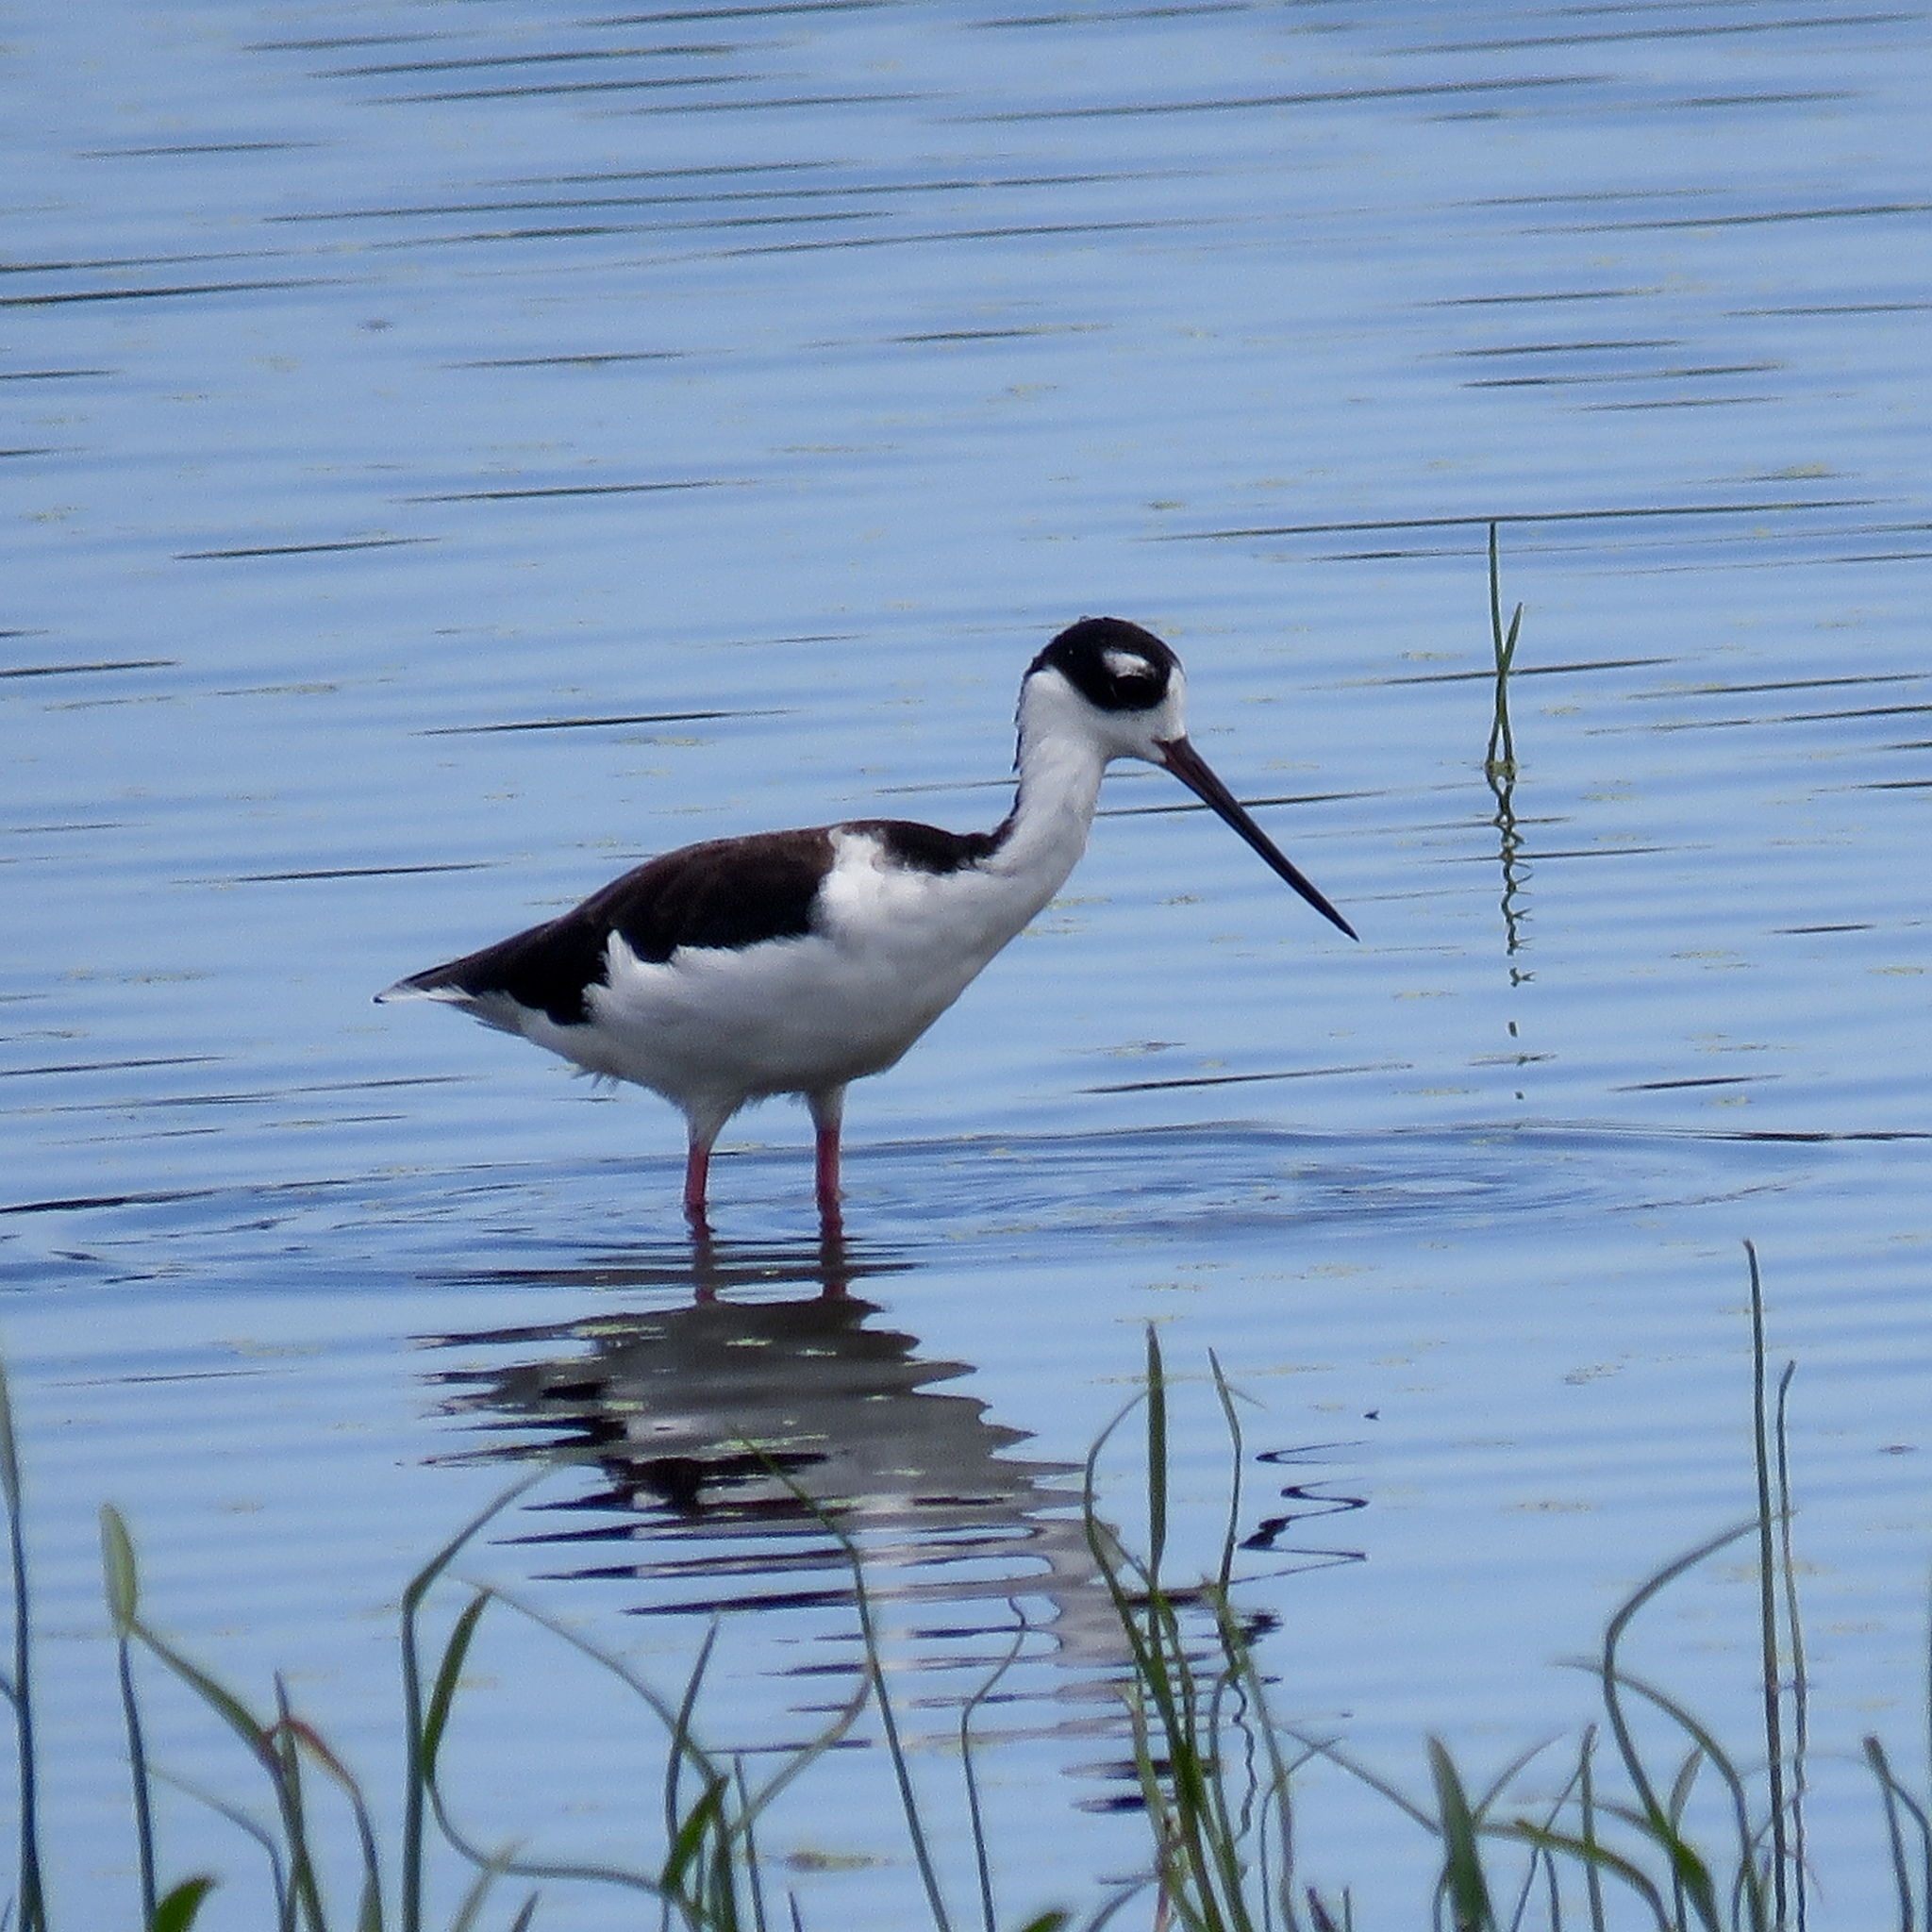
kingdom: Animalia
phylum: Chordata
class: Aves
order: Charadriiformes
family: Recurvirostridae
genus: Himantopus
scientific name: Himantopus mexicanus
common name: Black-necked stilt
